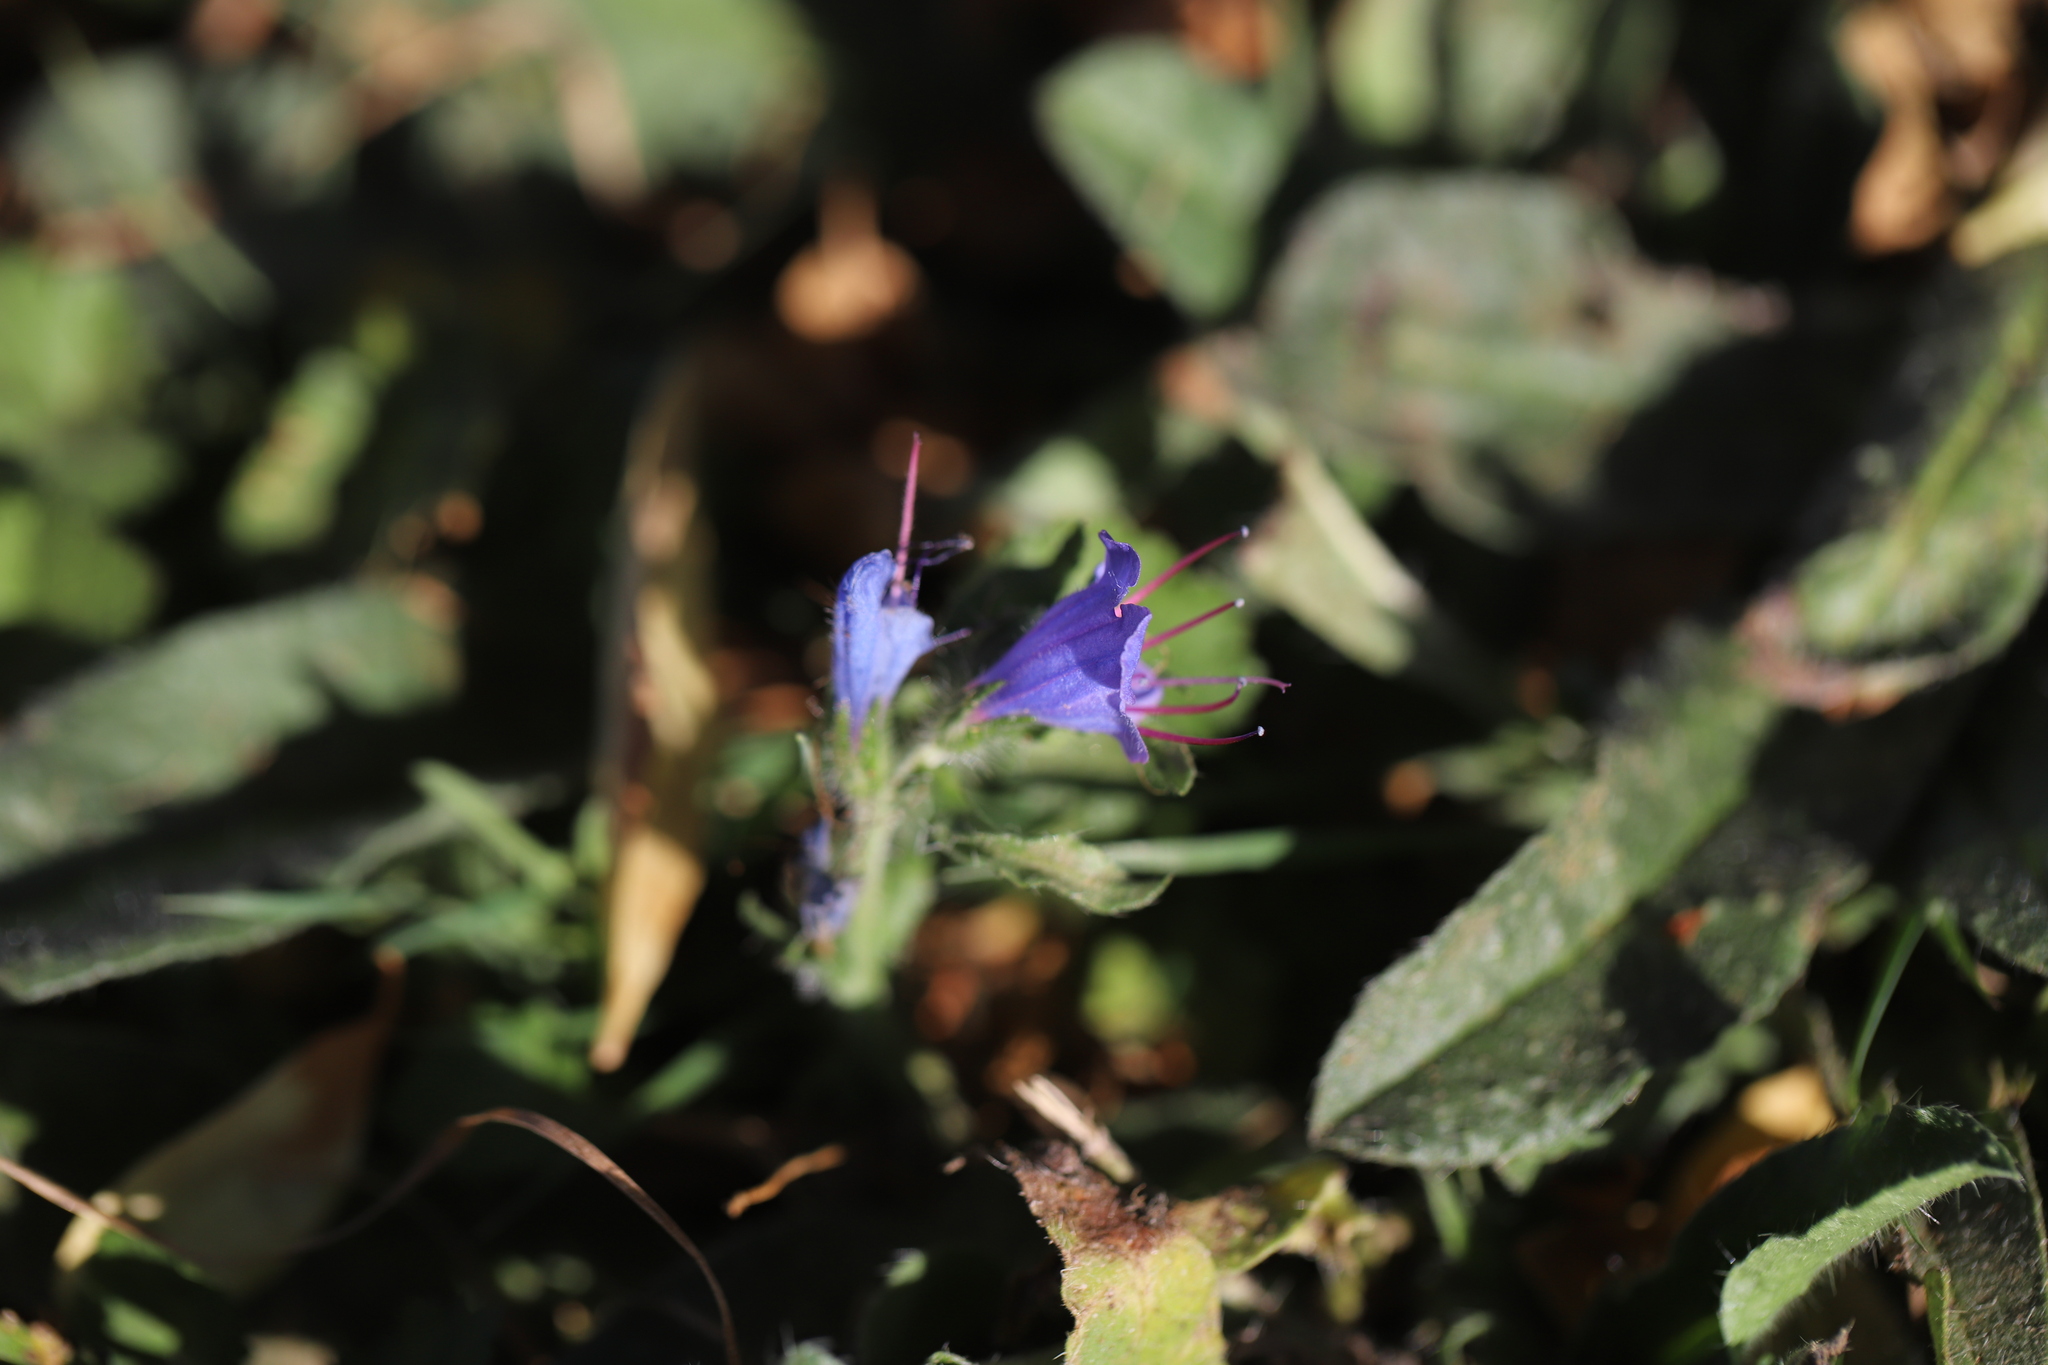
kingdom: Plantae
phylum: Tracheophyta
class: Magnoliopsida
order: Boraginales
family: Boraginaceae
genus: Echium
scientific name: Echium vulgare
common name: Common viper's bugloss
